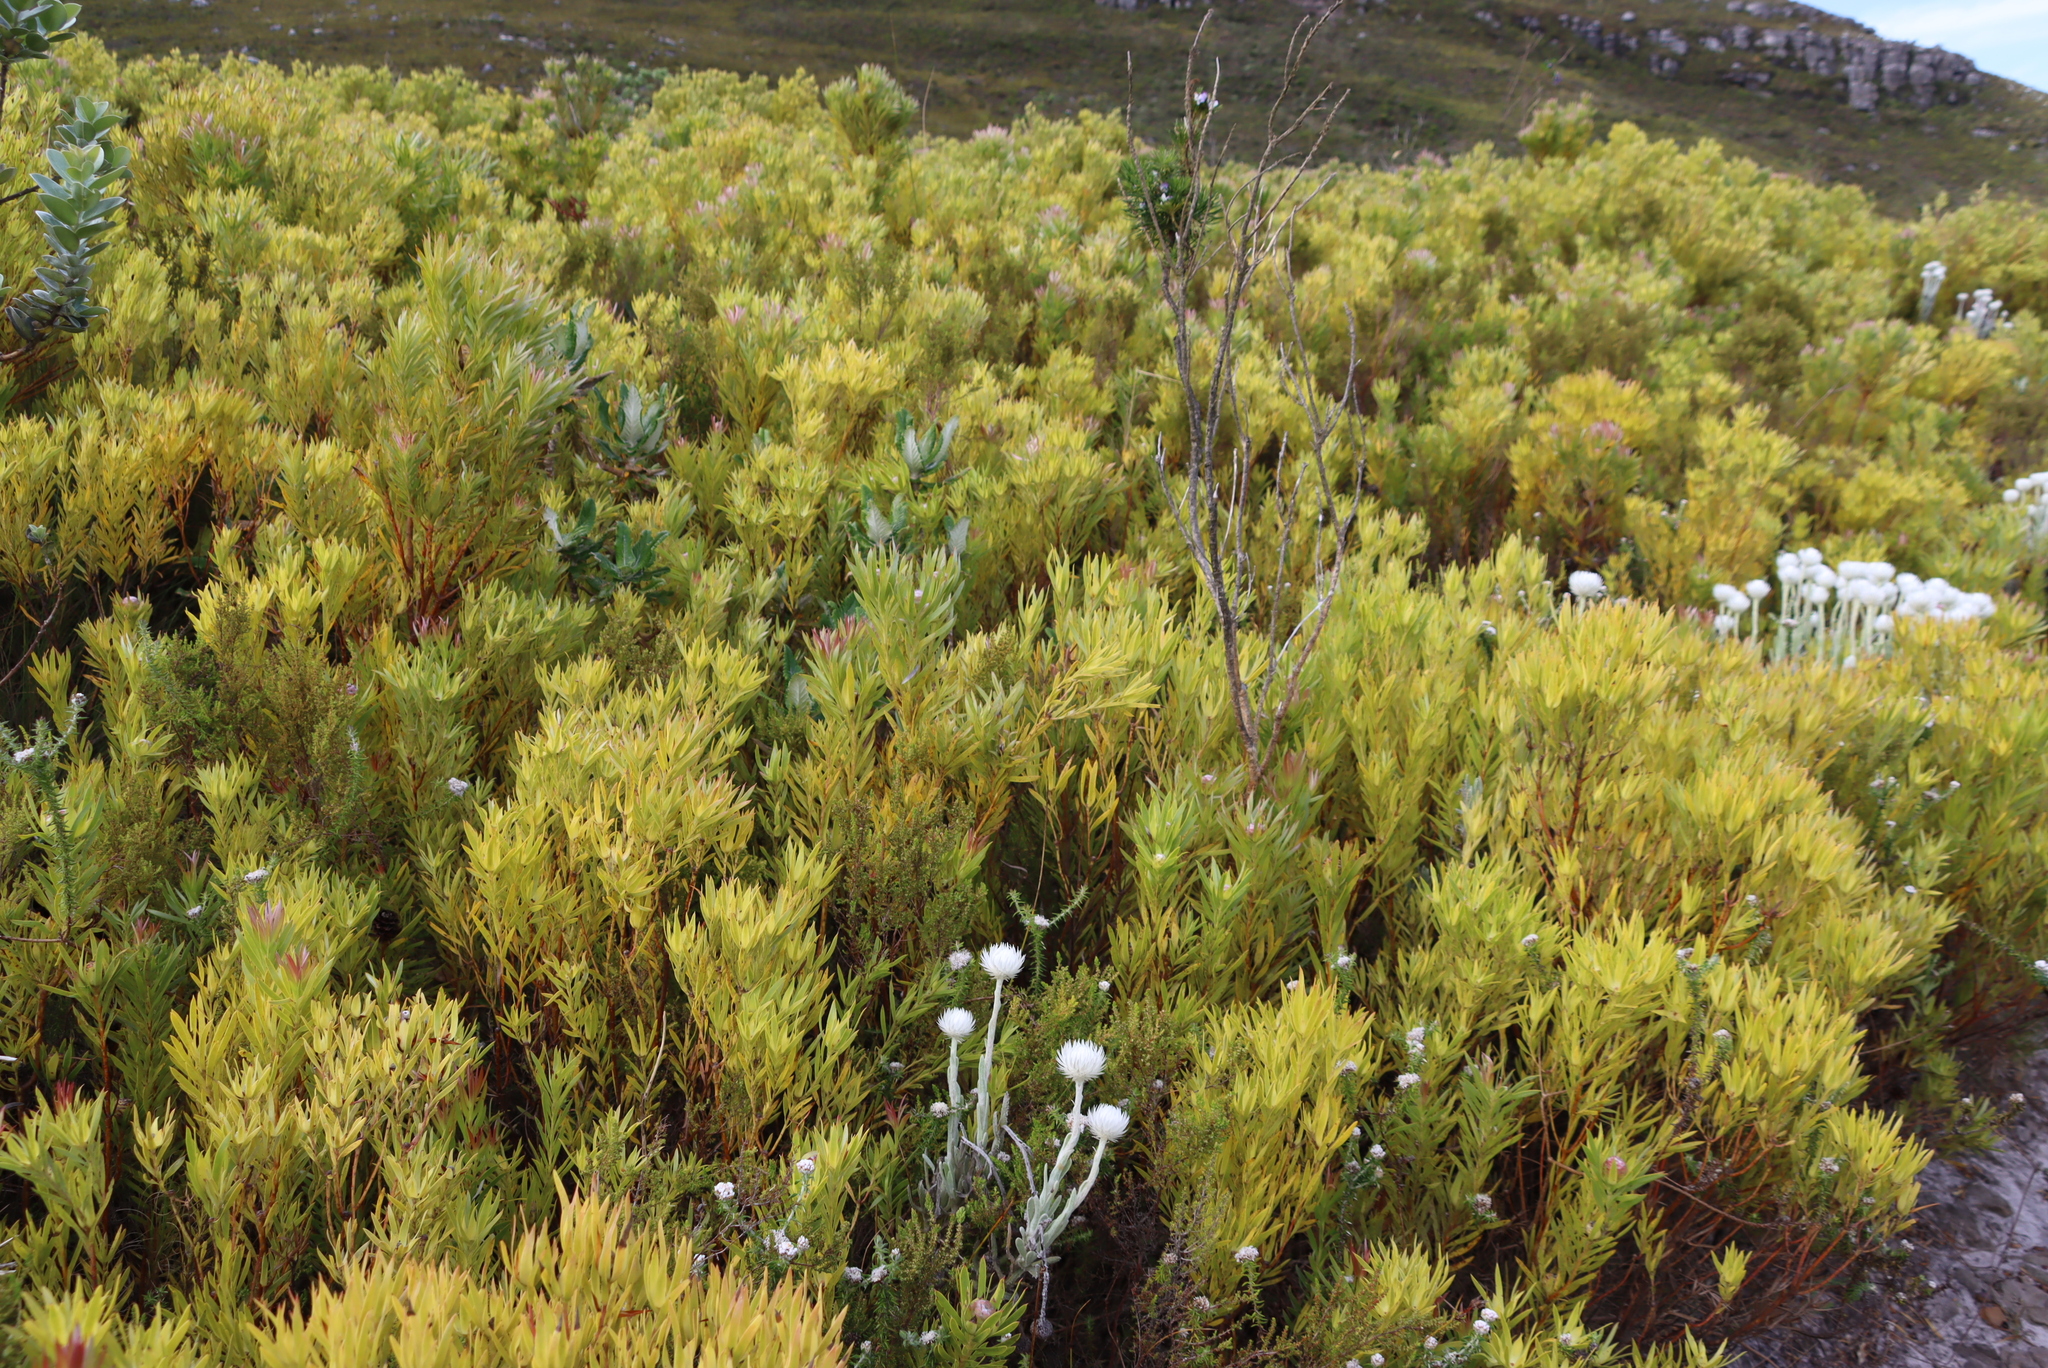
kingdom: Plantae
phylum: Tracheophyta
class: Magnoliopsida
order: Proteales
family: Proteaceae
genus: Leucadendron
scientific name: Leucadendron xanthoconus
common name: Sickle-leaf conebush
